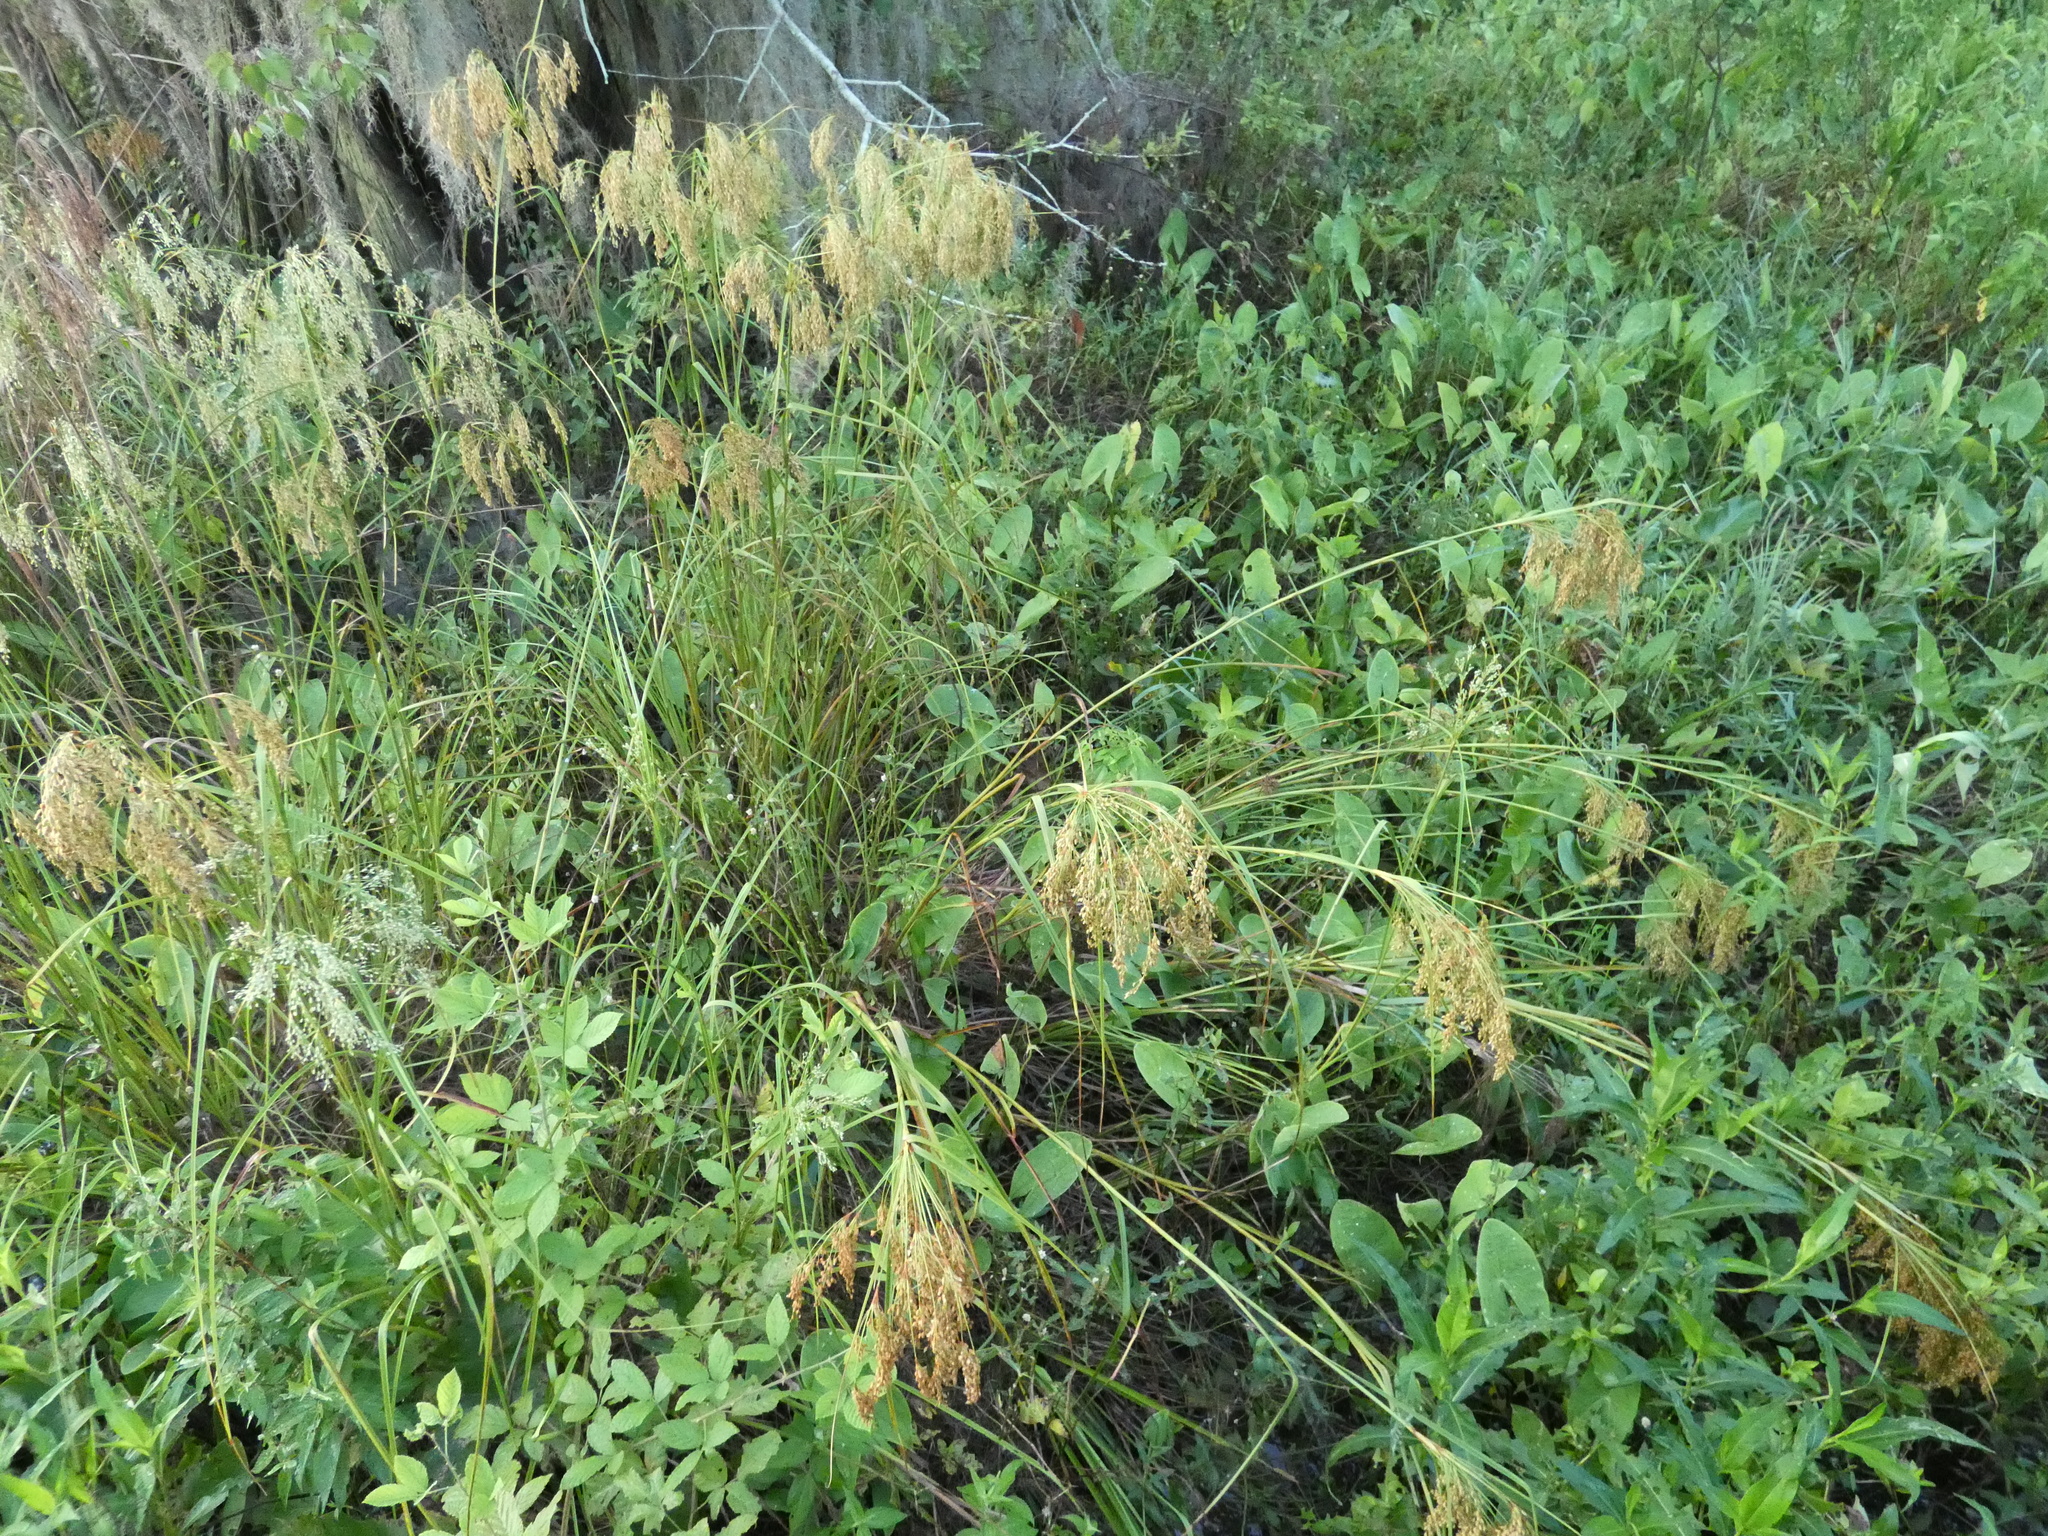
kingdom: Plantae
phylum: Tracheophyta
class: Liliopsida
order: Poales
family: Cyperaceae
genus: Scirpus
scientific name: Scirpus cyperinus
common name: Black-sheathed bulrush
